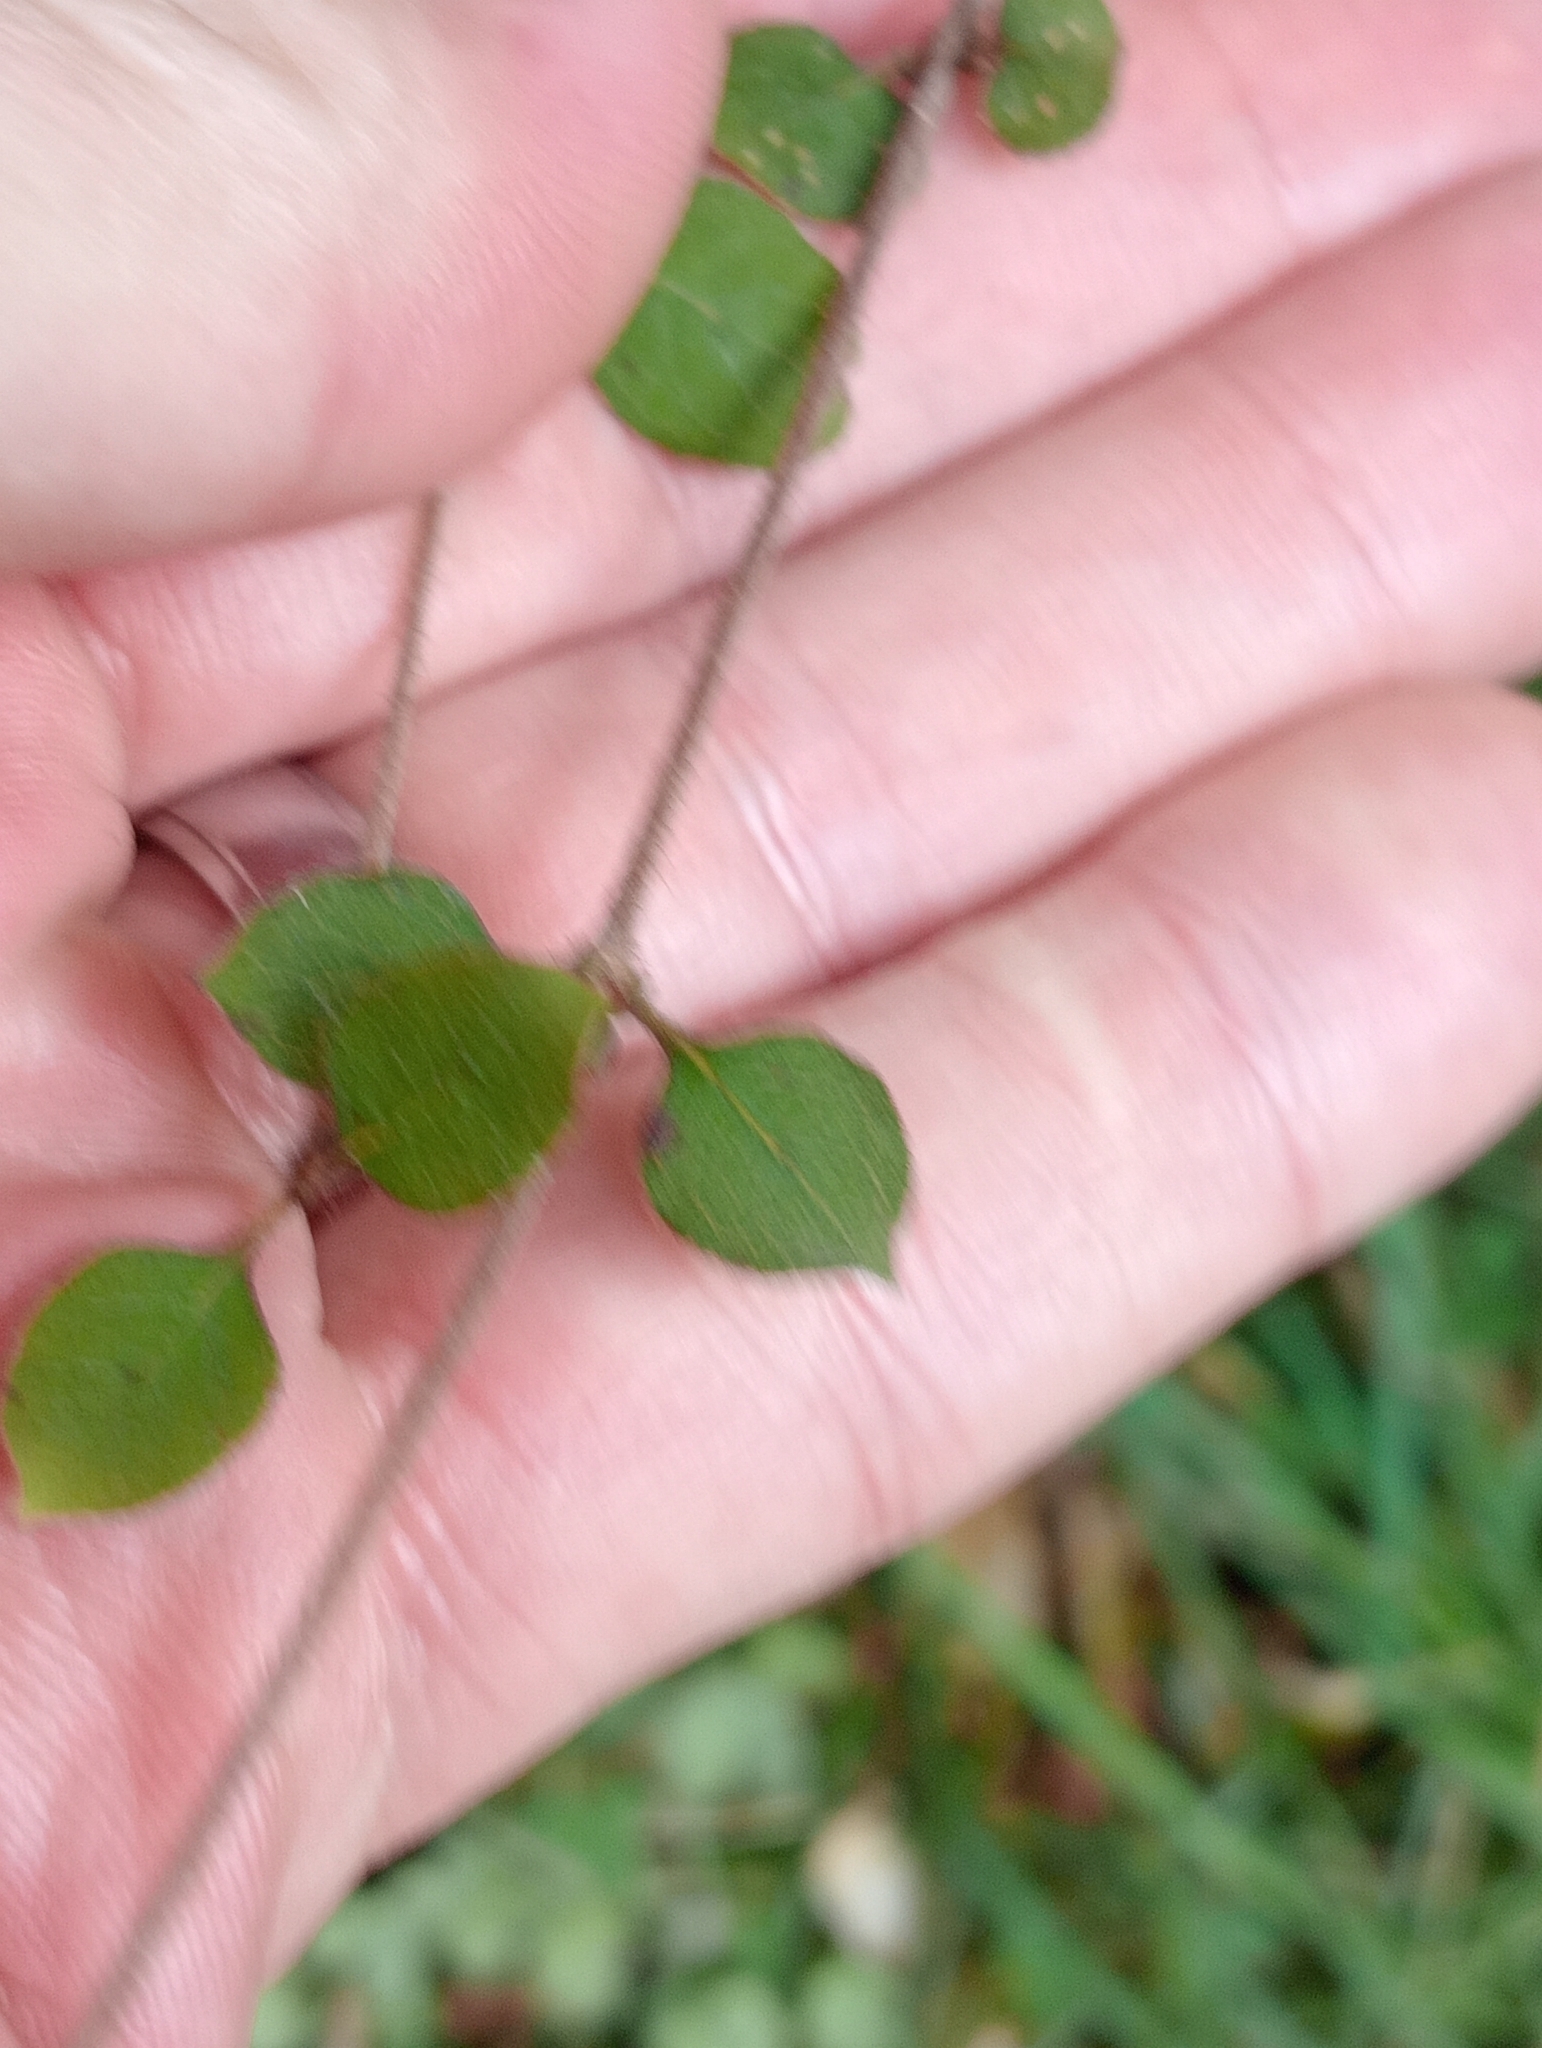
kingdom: Plantae
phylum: Tracheophyta
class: Magnoliopsida
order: Gentianales
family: Rubiaceae
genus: Coprosma
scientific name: Coprosma rotundifolia
